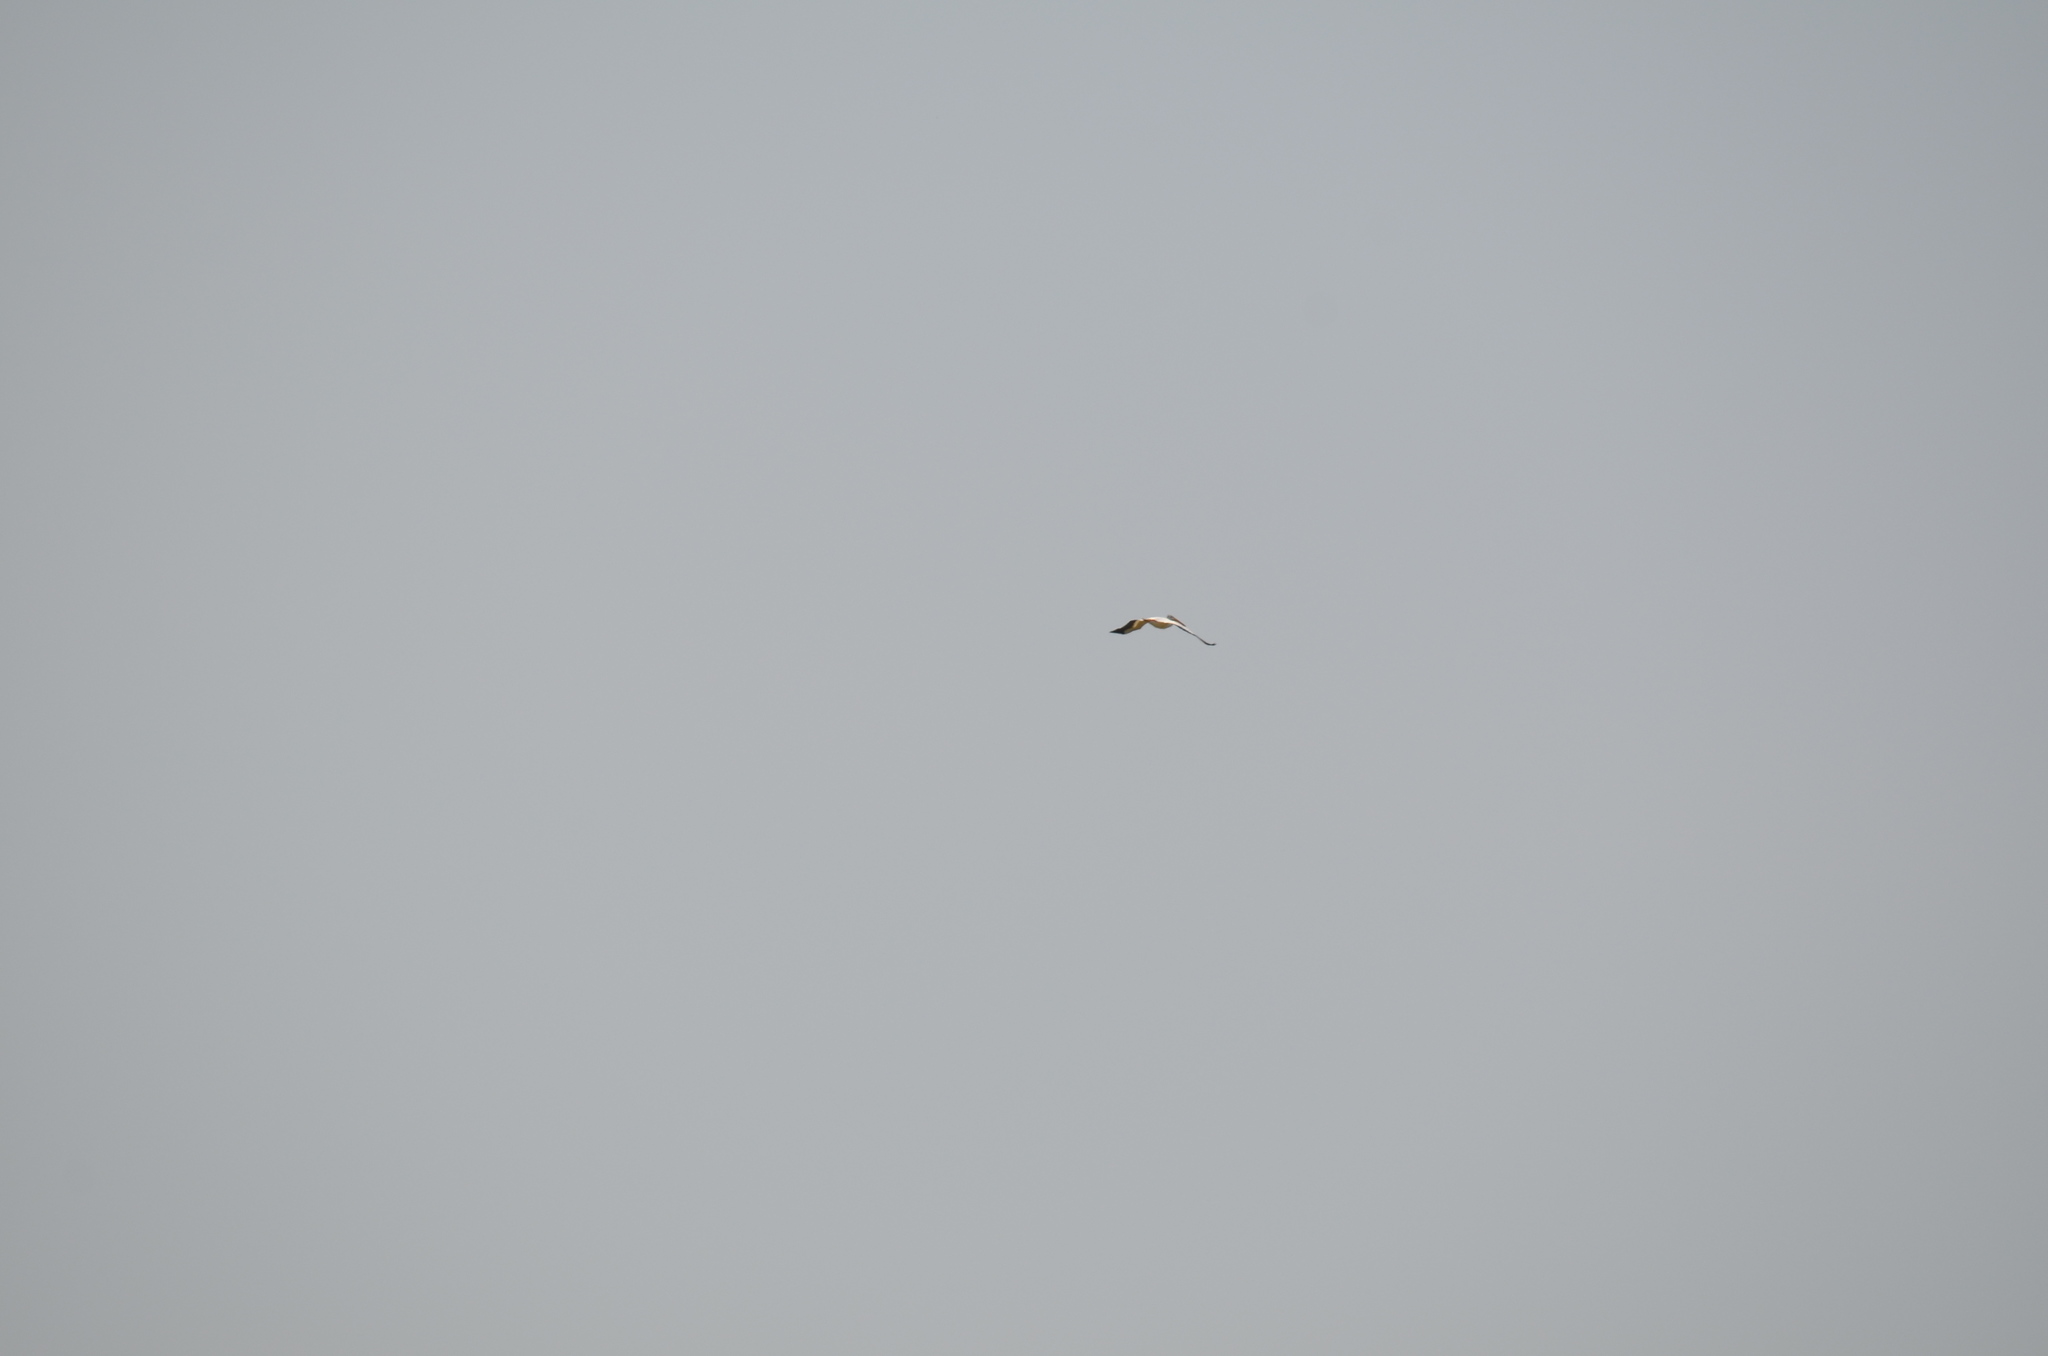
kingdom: Animalia
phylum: Chordata
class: Aves
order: Pelecaniformes
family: Pelecanidae
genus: Pelecanus
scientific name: Pelecanus erythrorhynchos
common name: American white pelican
